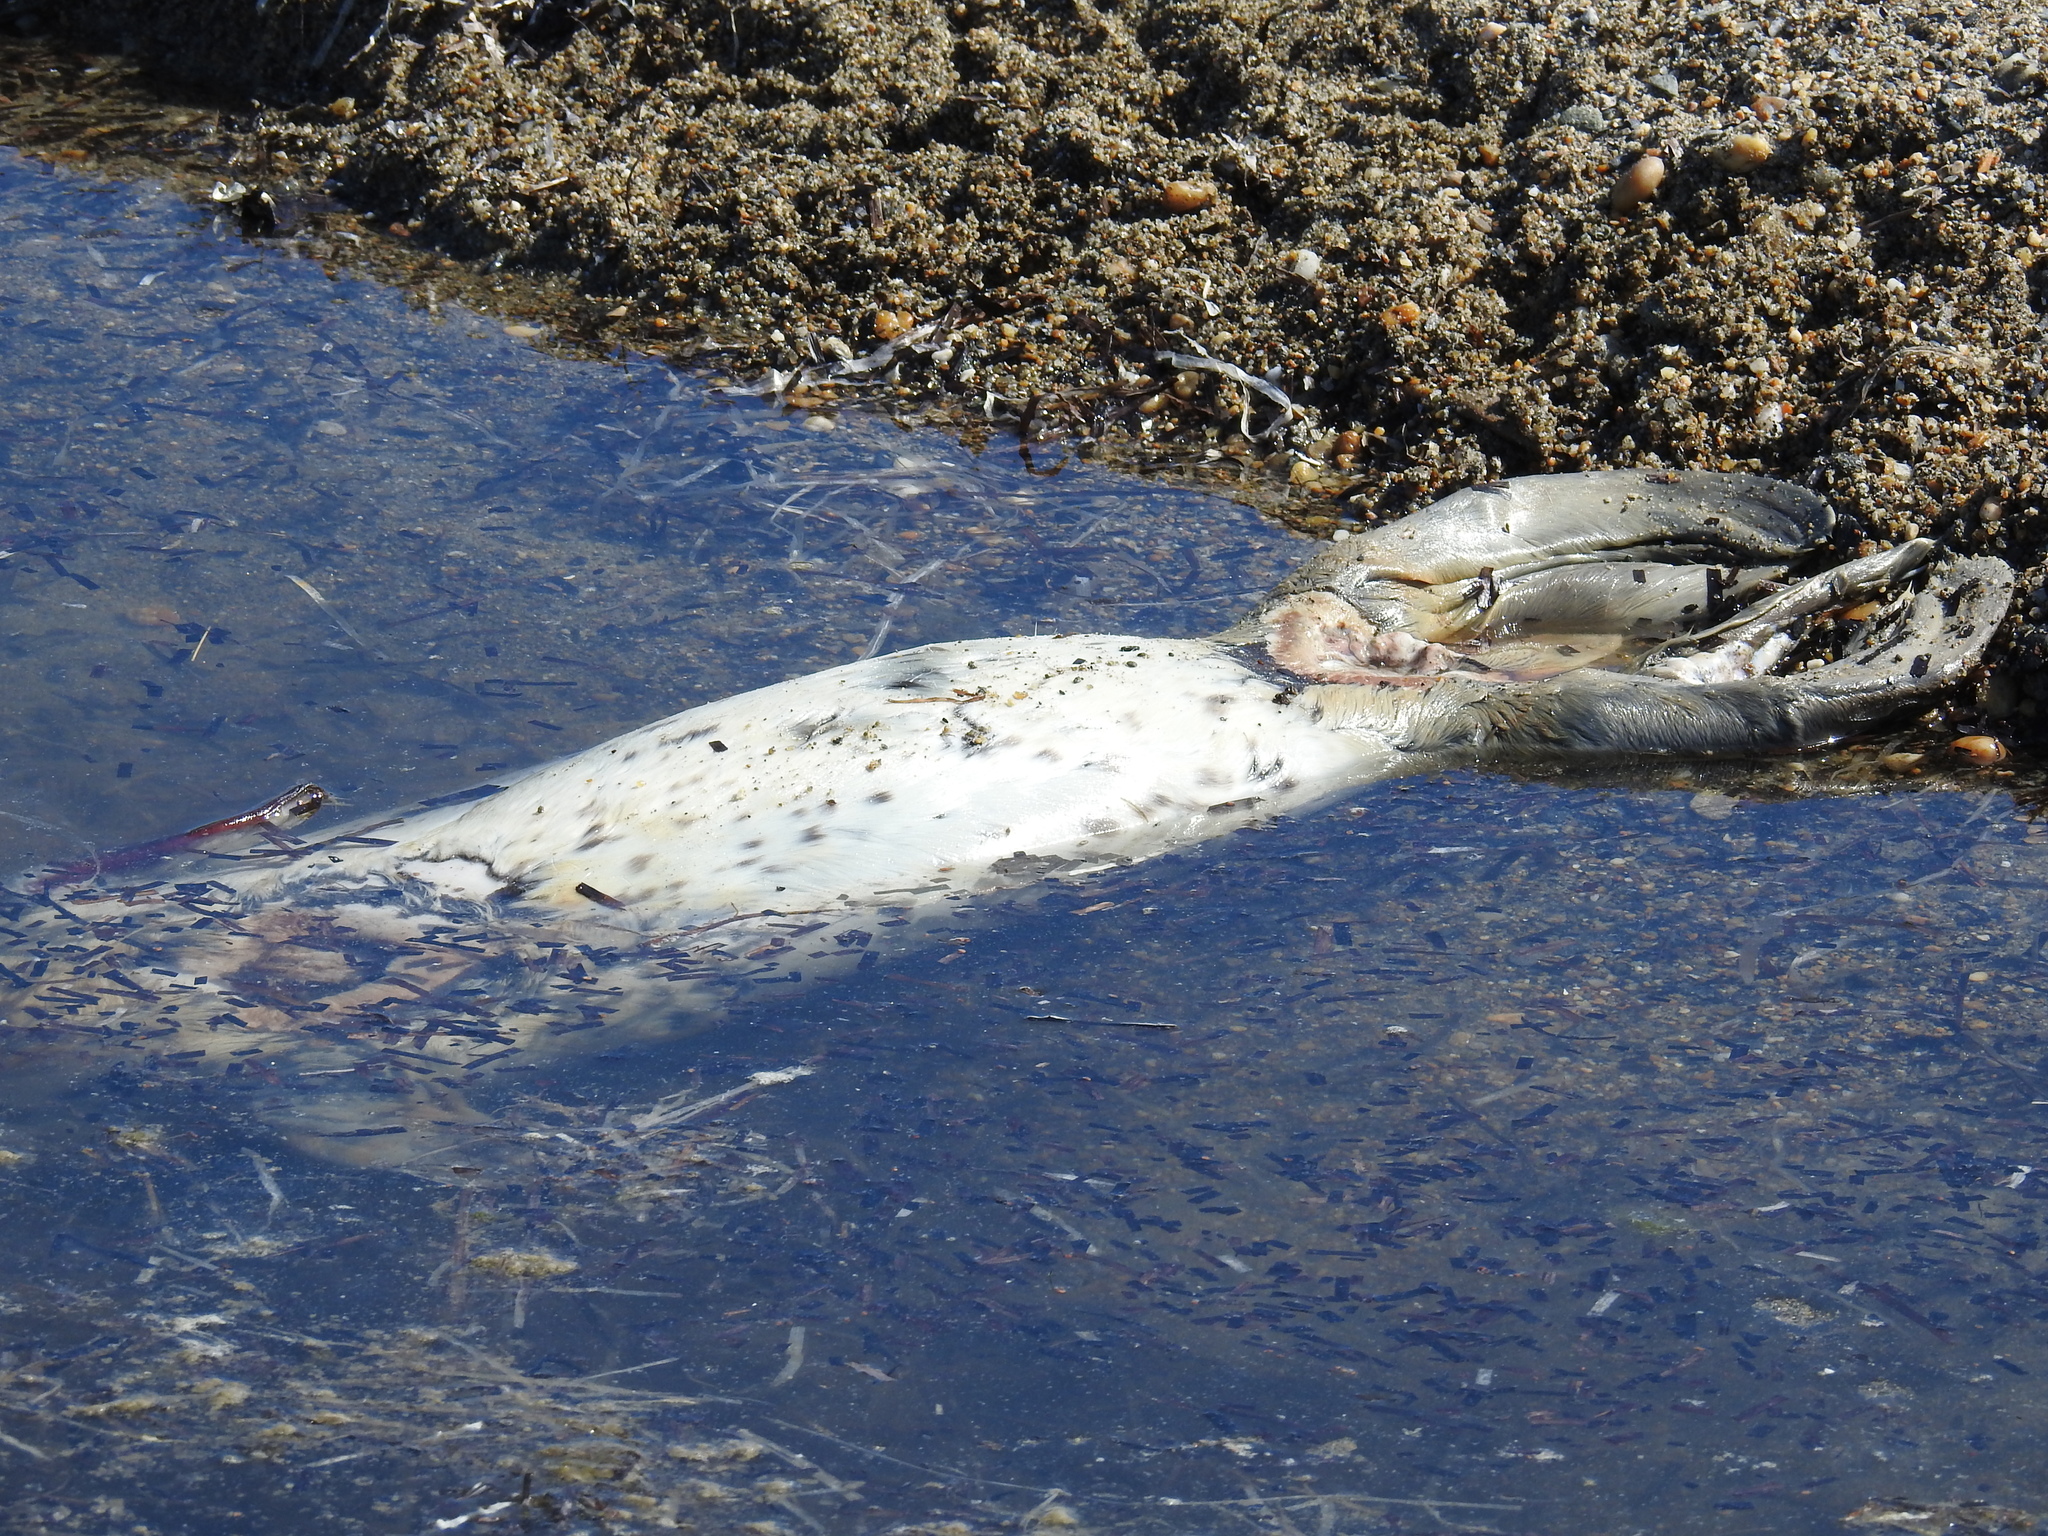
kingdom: Animalia
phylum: Chordata
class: Mammalia
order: Carnivora
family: Phocidae
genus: Phoca
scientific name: Phoca largha
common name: Spotted seal
